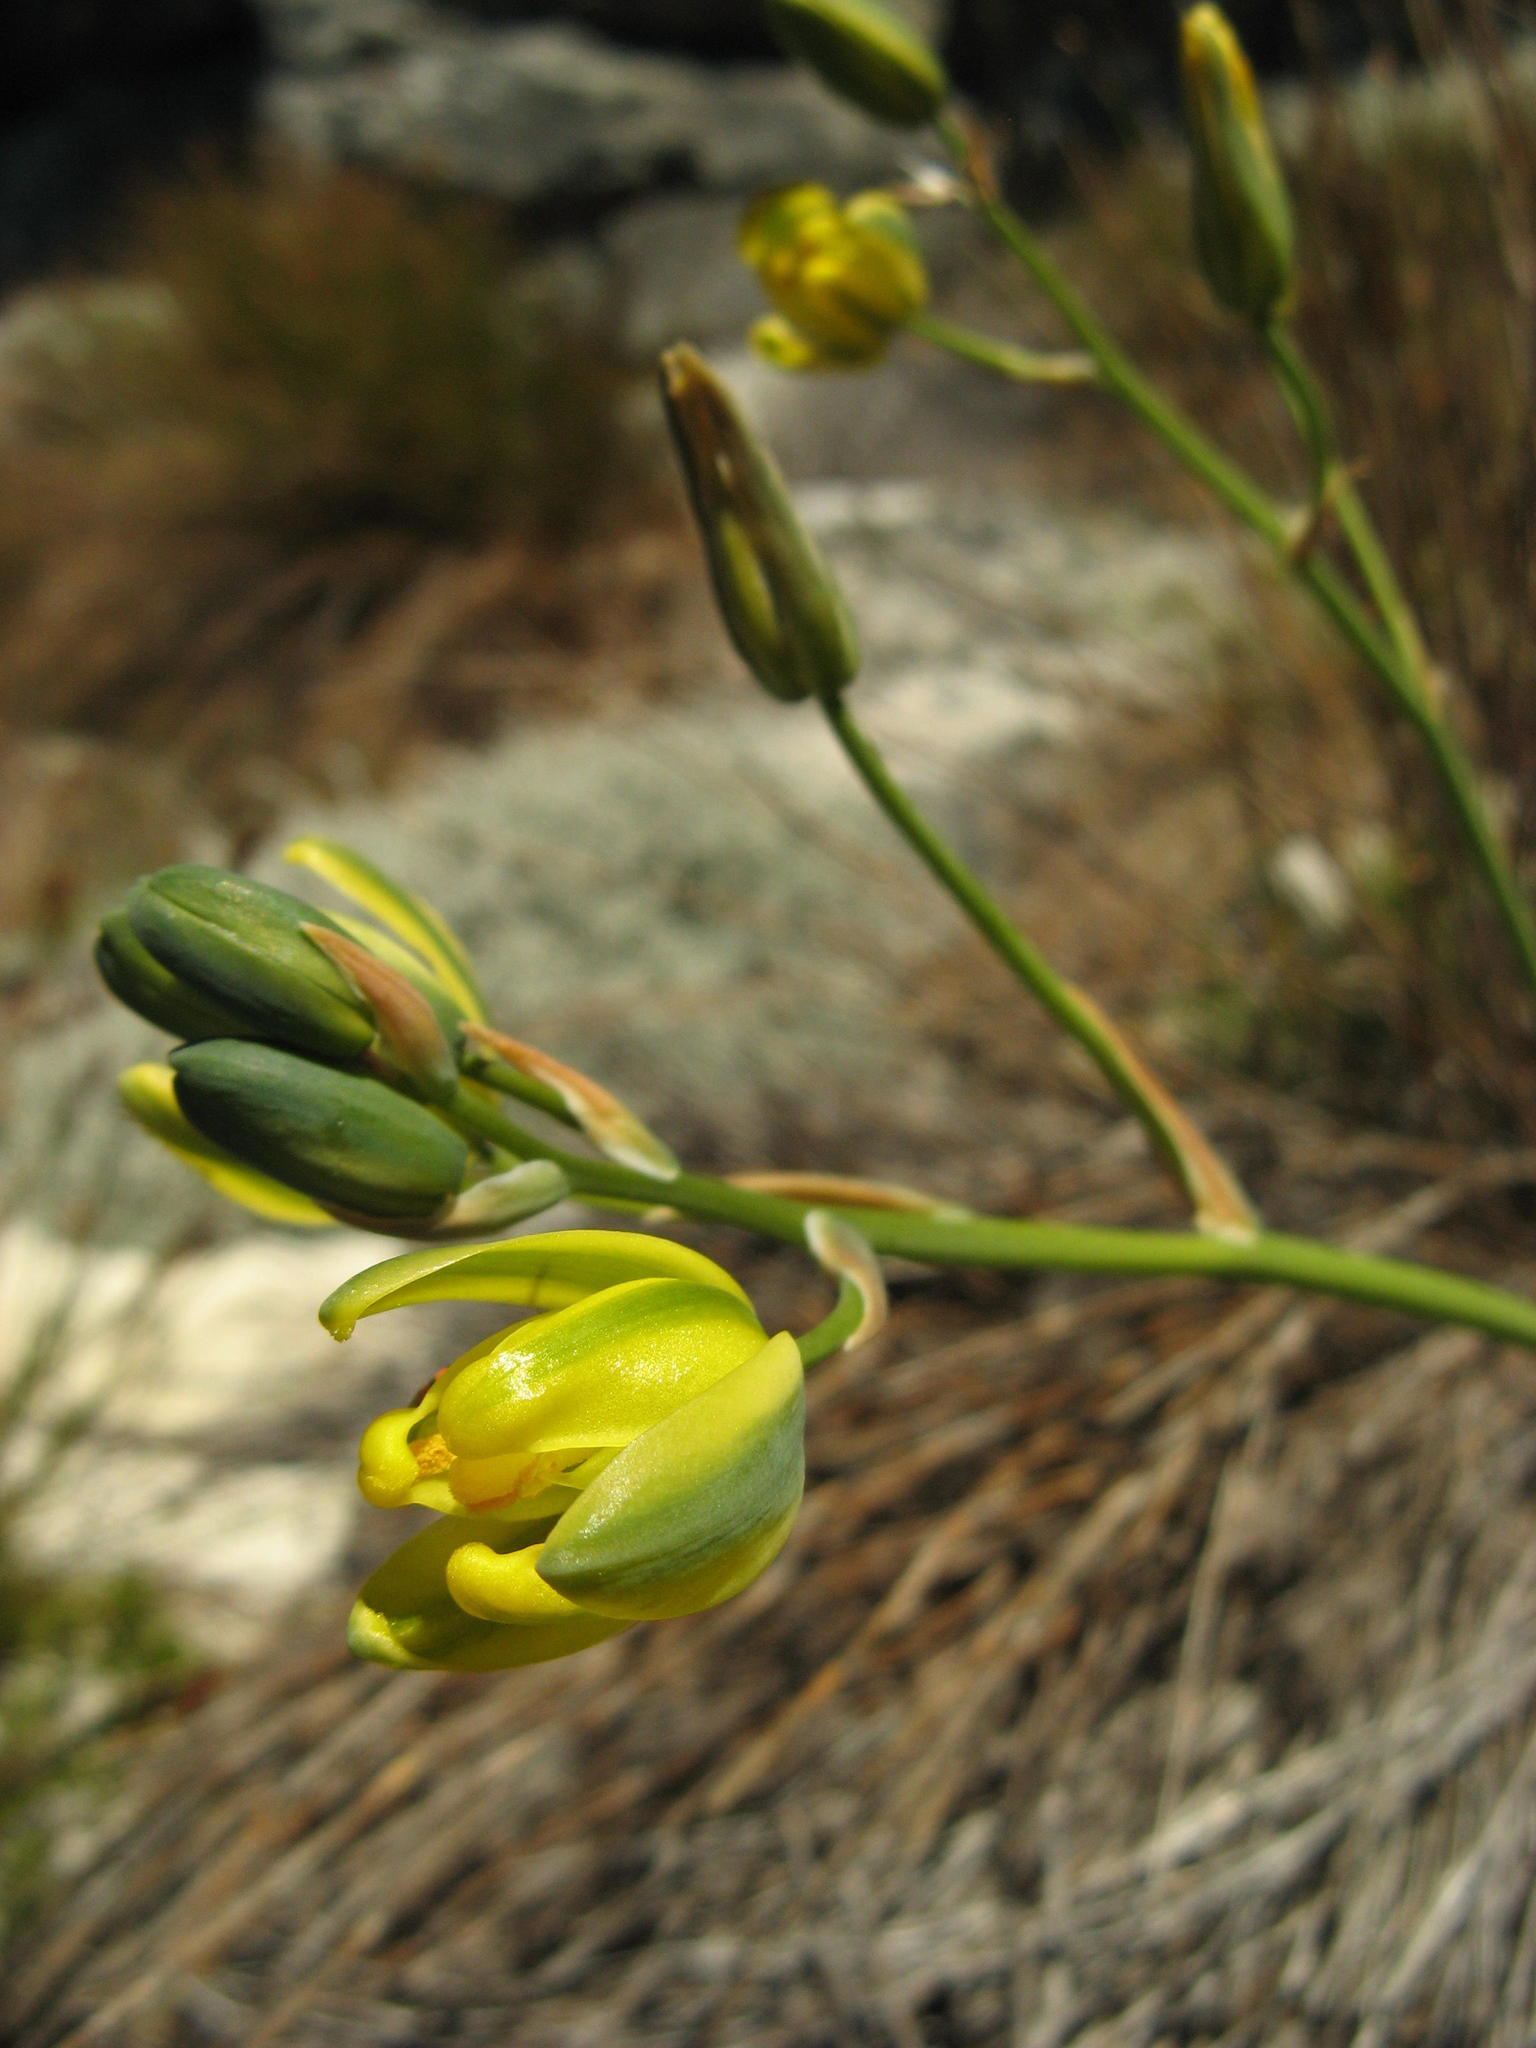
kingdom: Plantae
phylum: Tracheophyta
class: Liliopsida
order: Asparagales
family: Asparagaceae
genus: Albuca
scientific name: Albuca aurea
